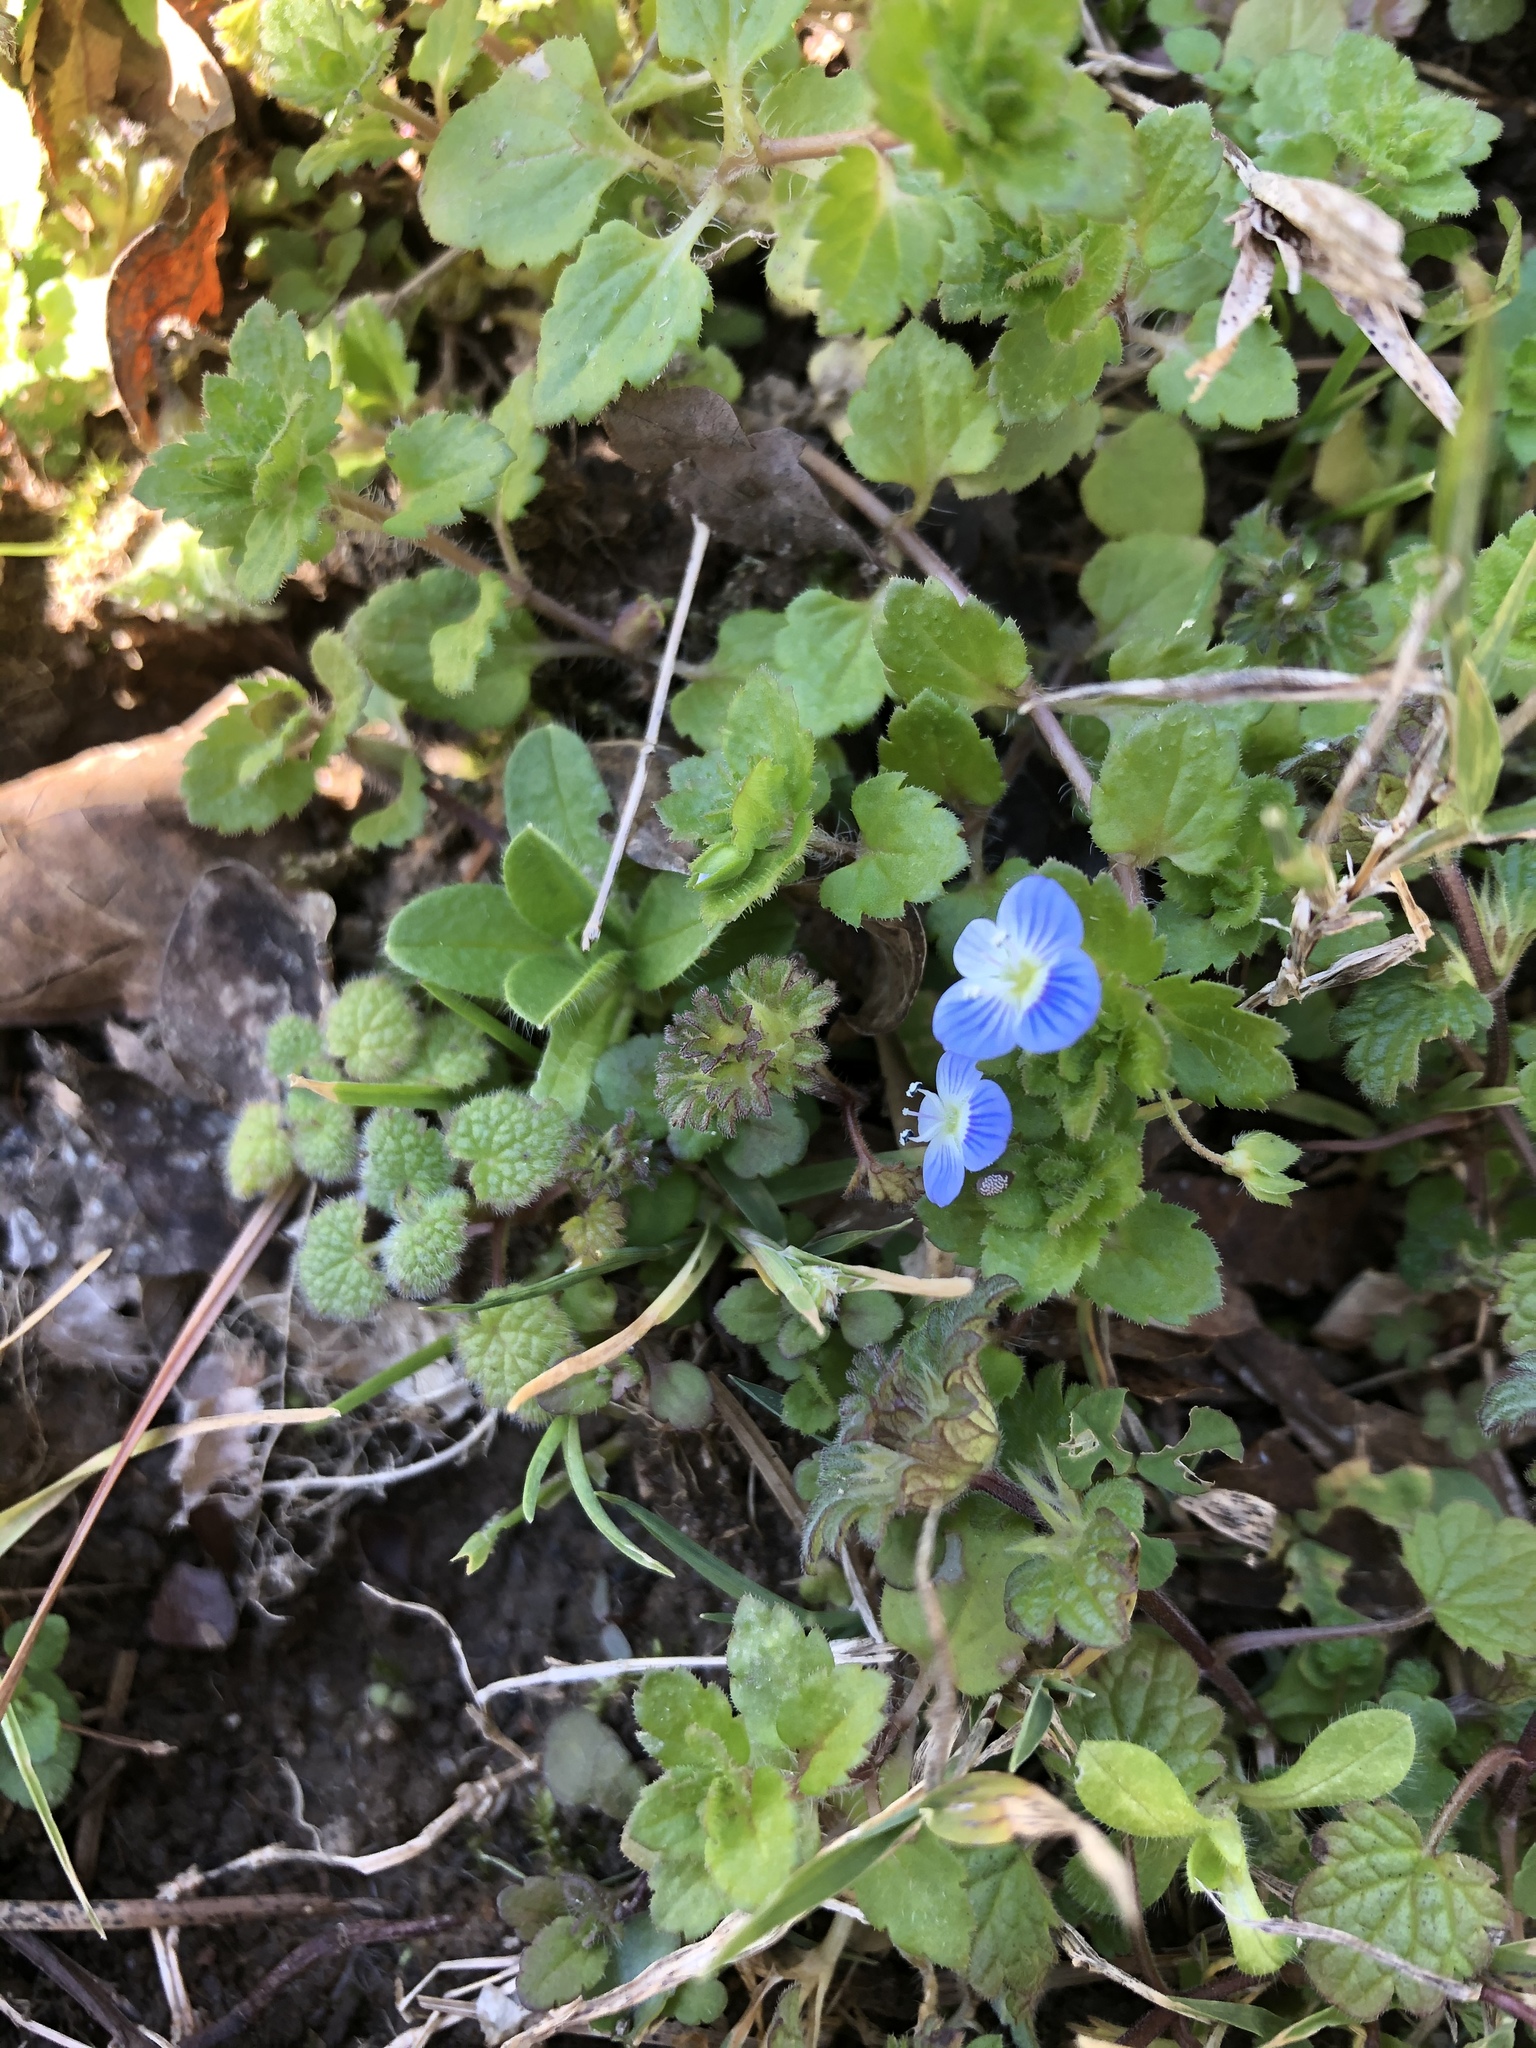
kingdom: Plantae
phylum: Tracheophyta
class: Magnoliopsida
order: Lamiales
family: Plantaginaceae
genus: Veronica
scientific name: Veronica persica
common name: Common field-speedwell
